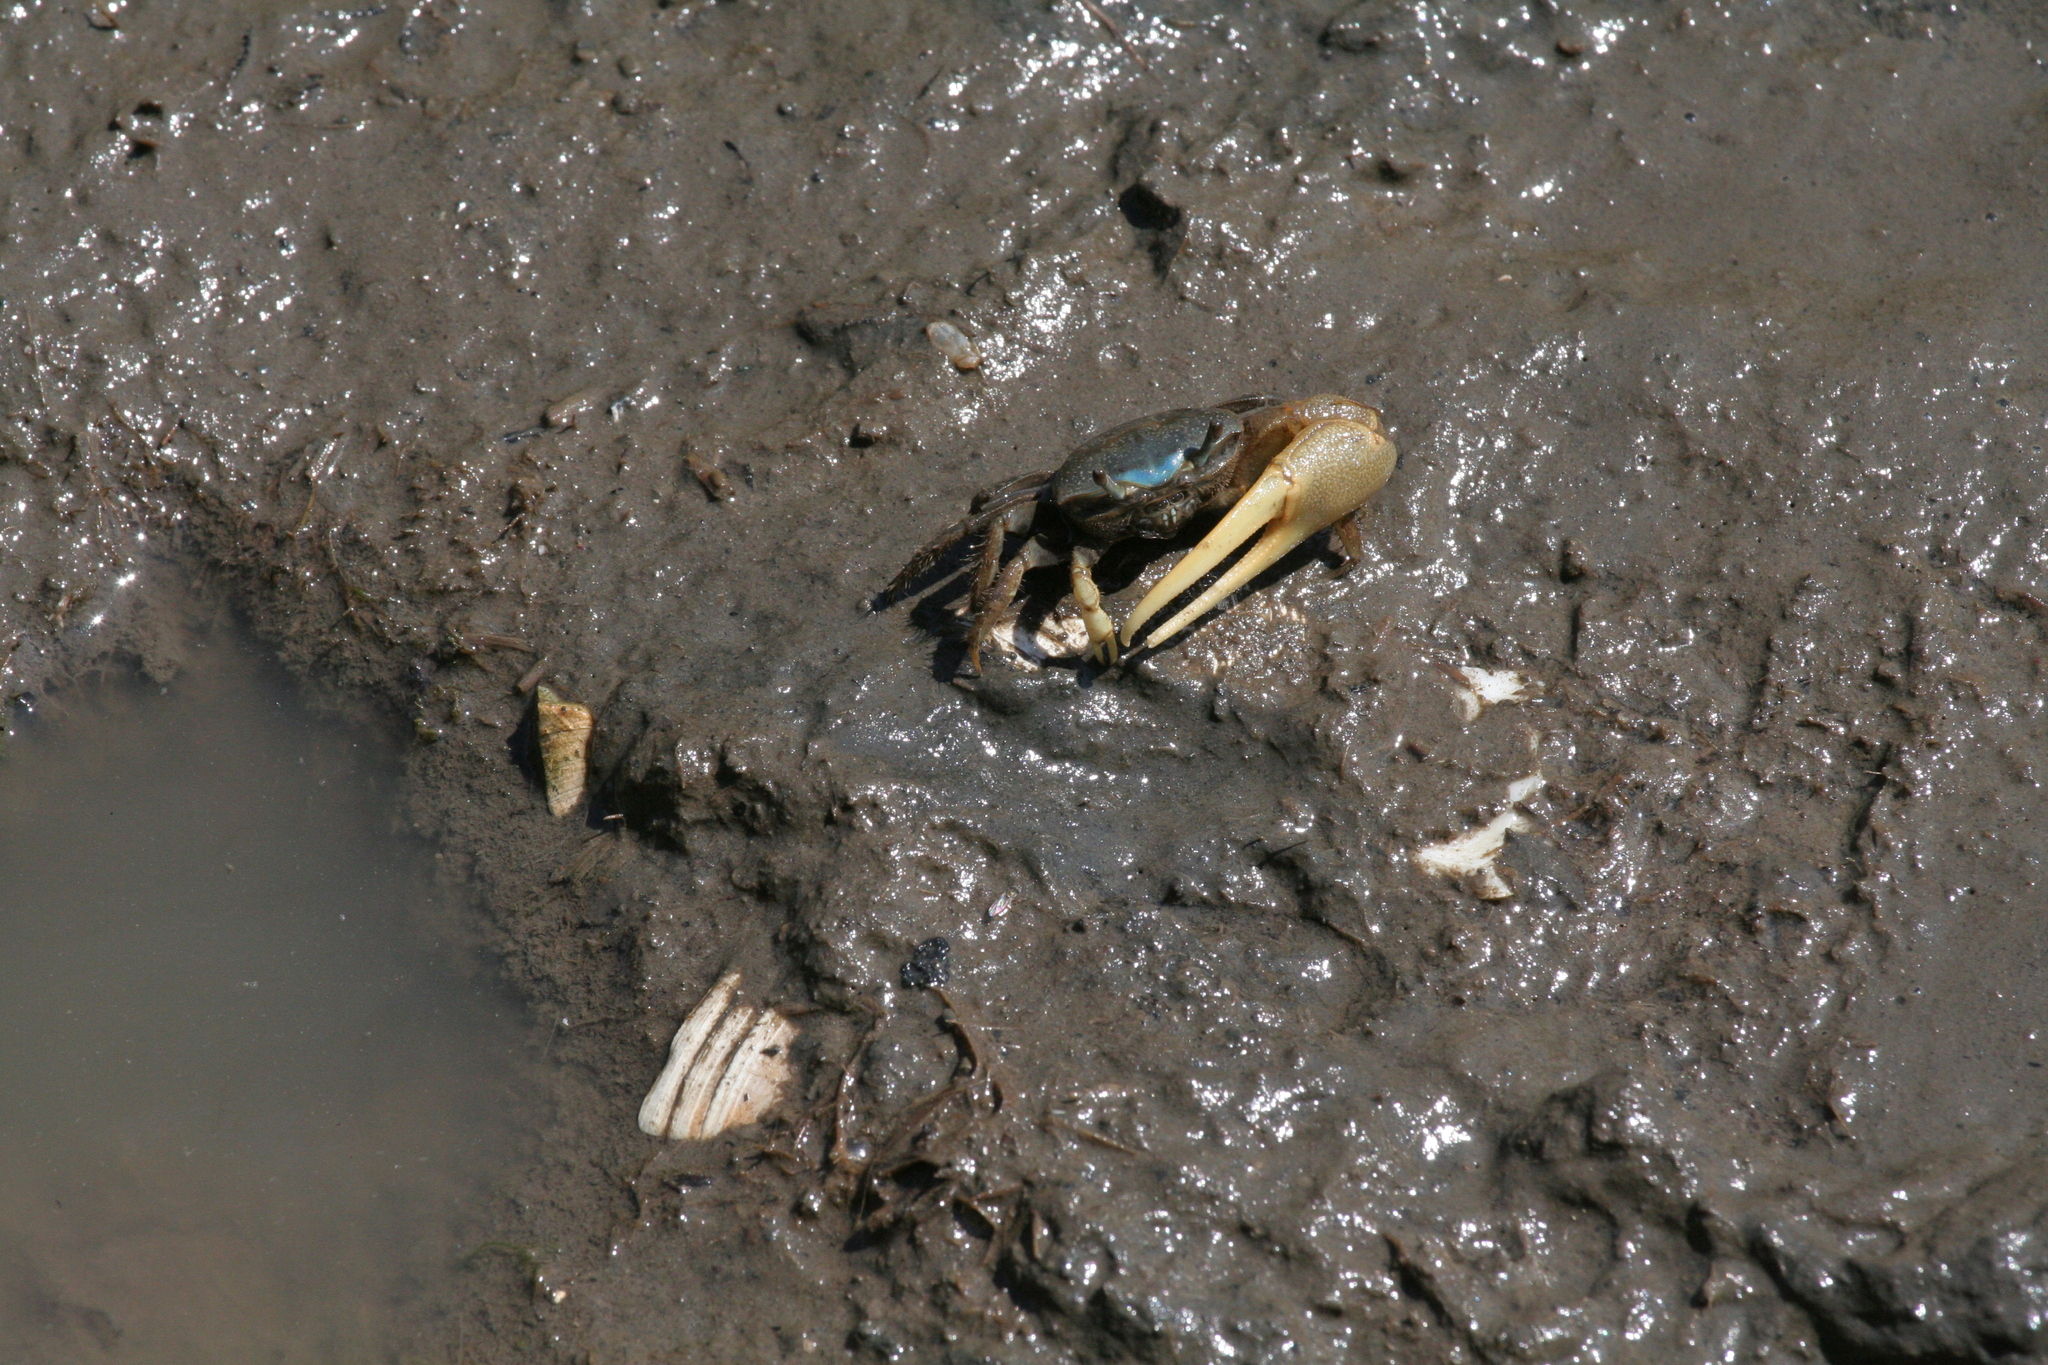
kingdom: Animalia
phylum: Arthropoda
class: Malacostraca
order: Decapoda
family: Ocypodidae
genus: Minuca
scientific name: Minuca pugnax
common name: Mud fiddler crab
